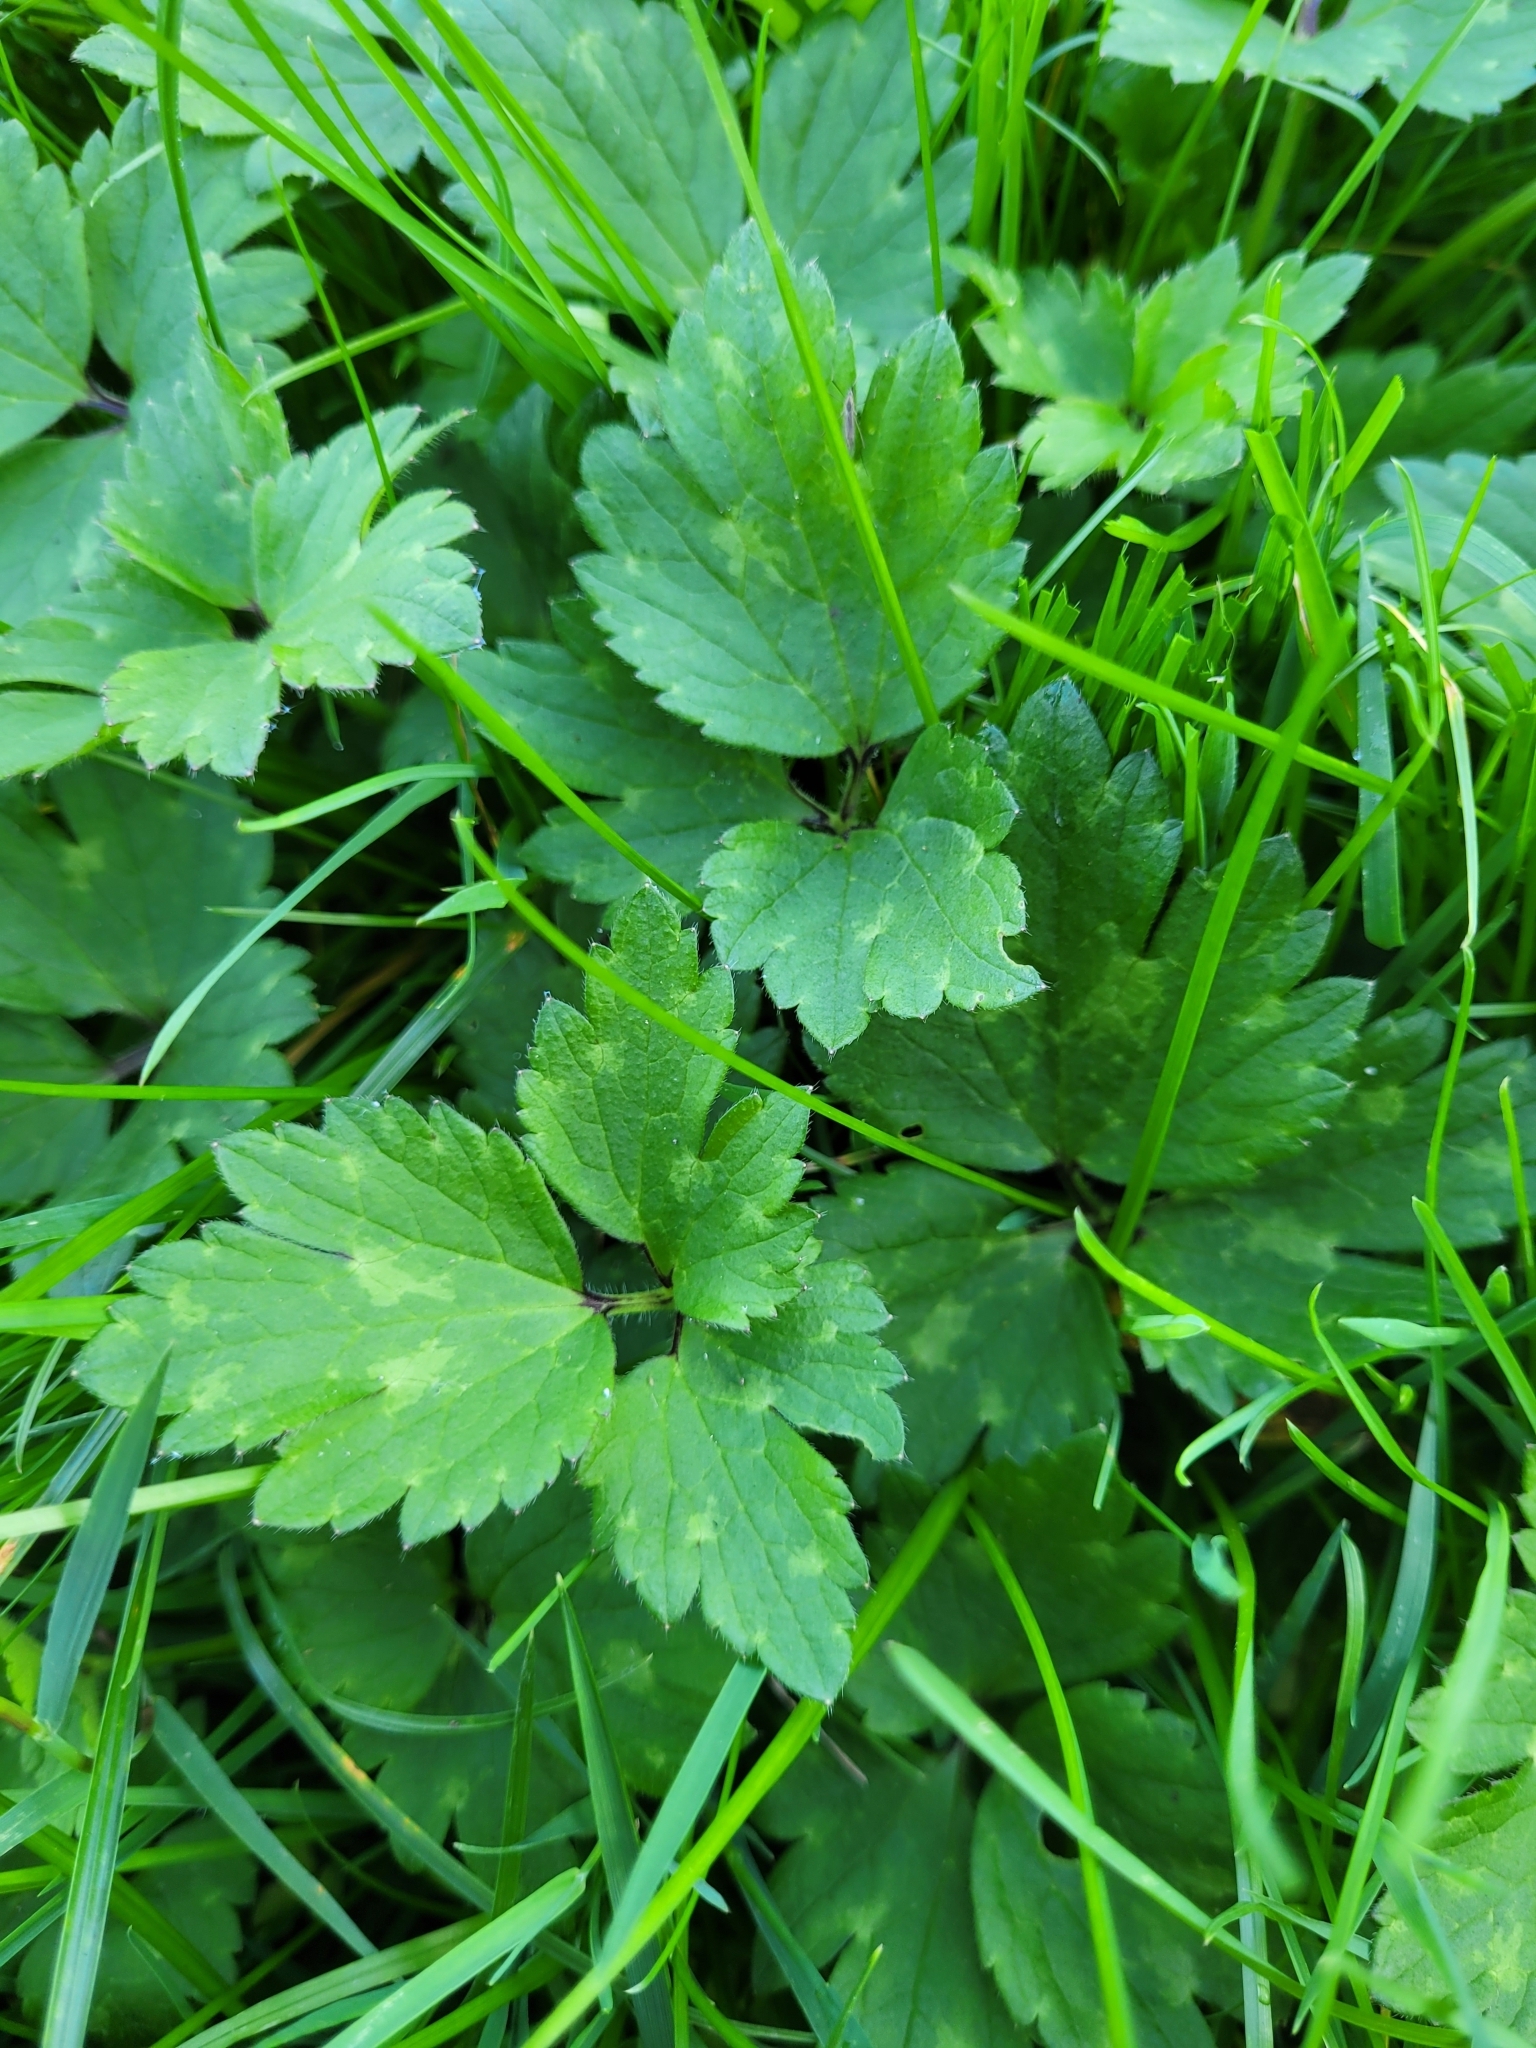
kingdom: Plantae
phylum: Tracheophyta
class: Magnoliopsida
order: Ranunculales
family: Ranunculaceae
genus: Ranunculus
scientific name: Ranunculus repens
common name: Creeping buttercup
